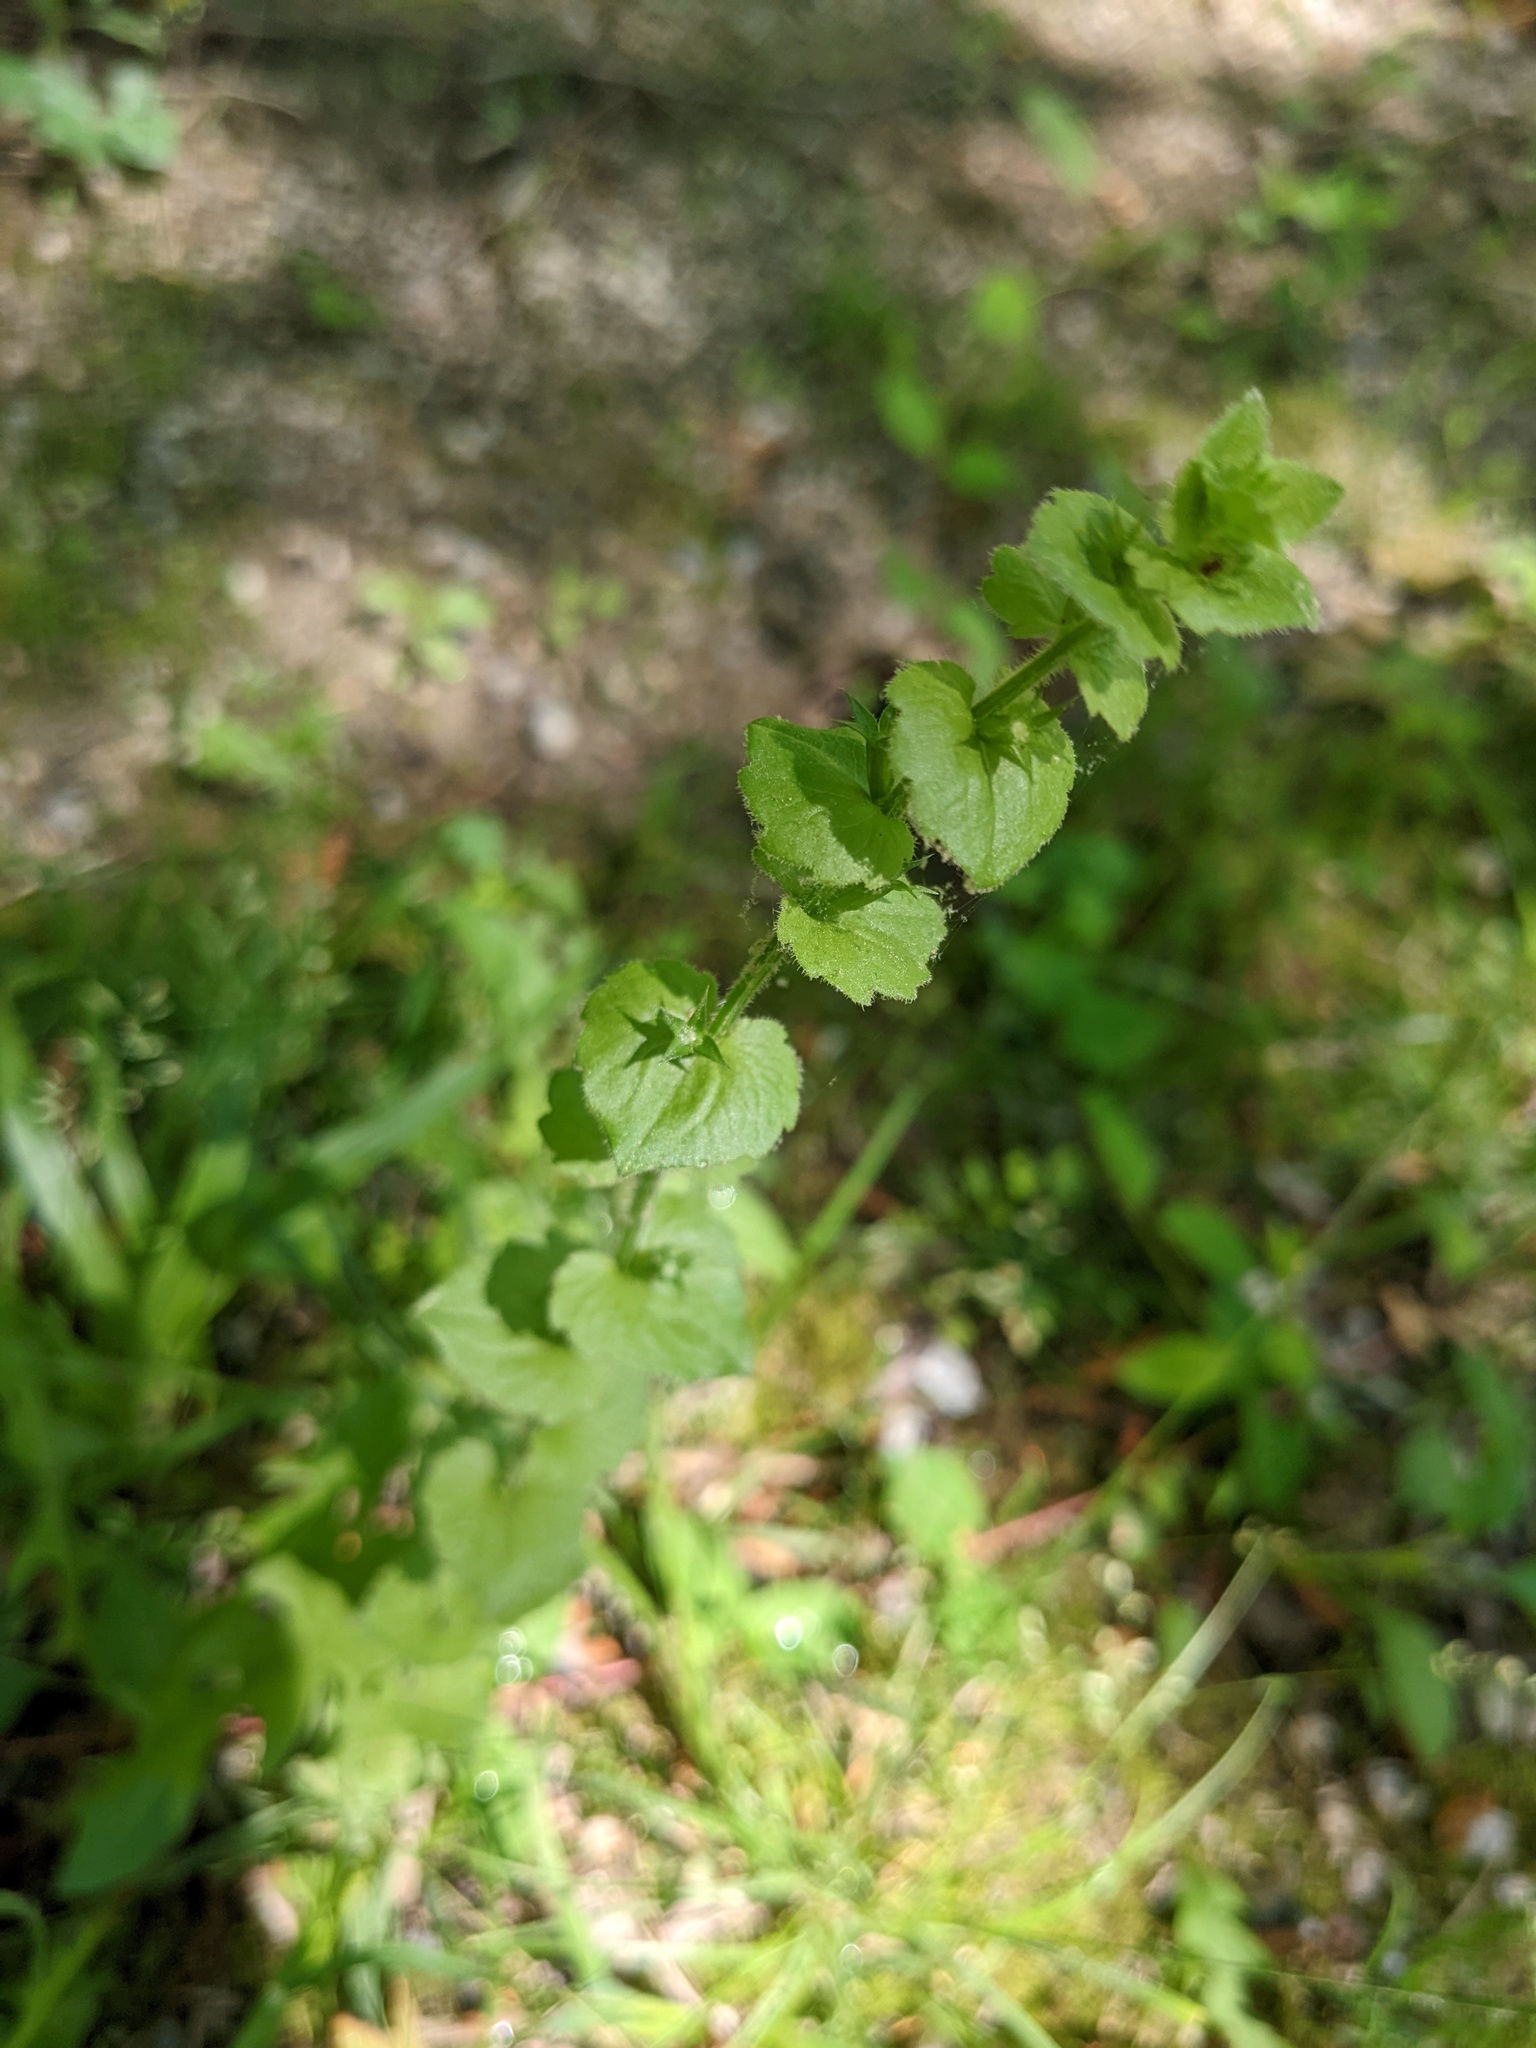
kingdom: Plantae
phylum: Tracheophyta
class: Magnoliopsida
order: Asterales
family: Campanulaceae
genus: Triodanis
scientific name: Triodanis perfoliata
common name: Clasping venus' looking-glass
